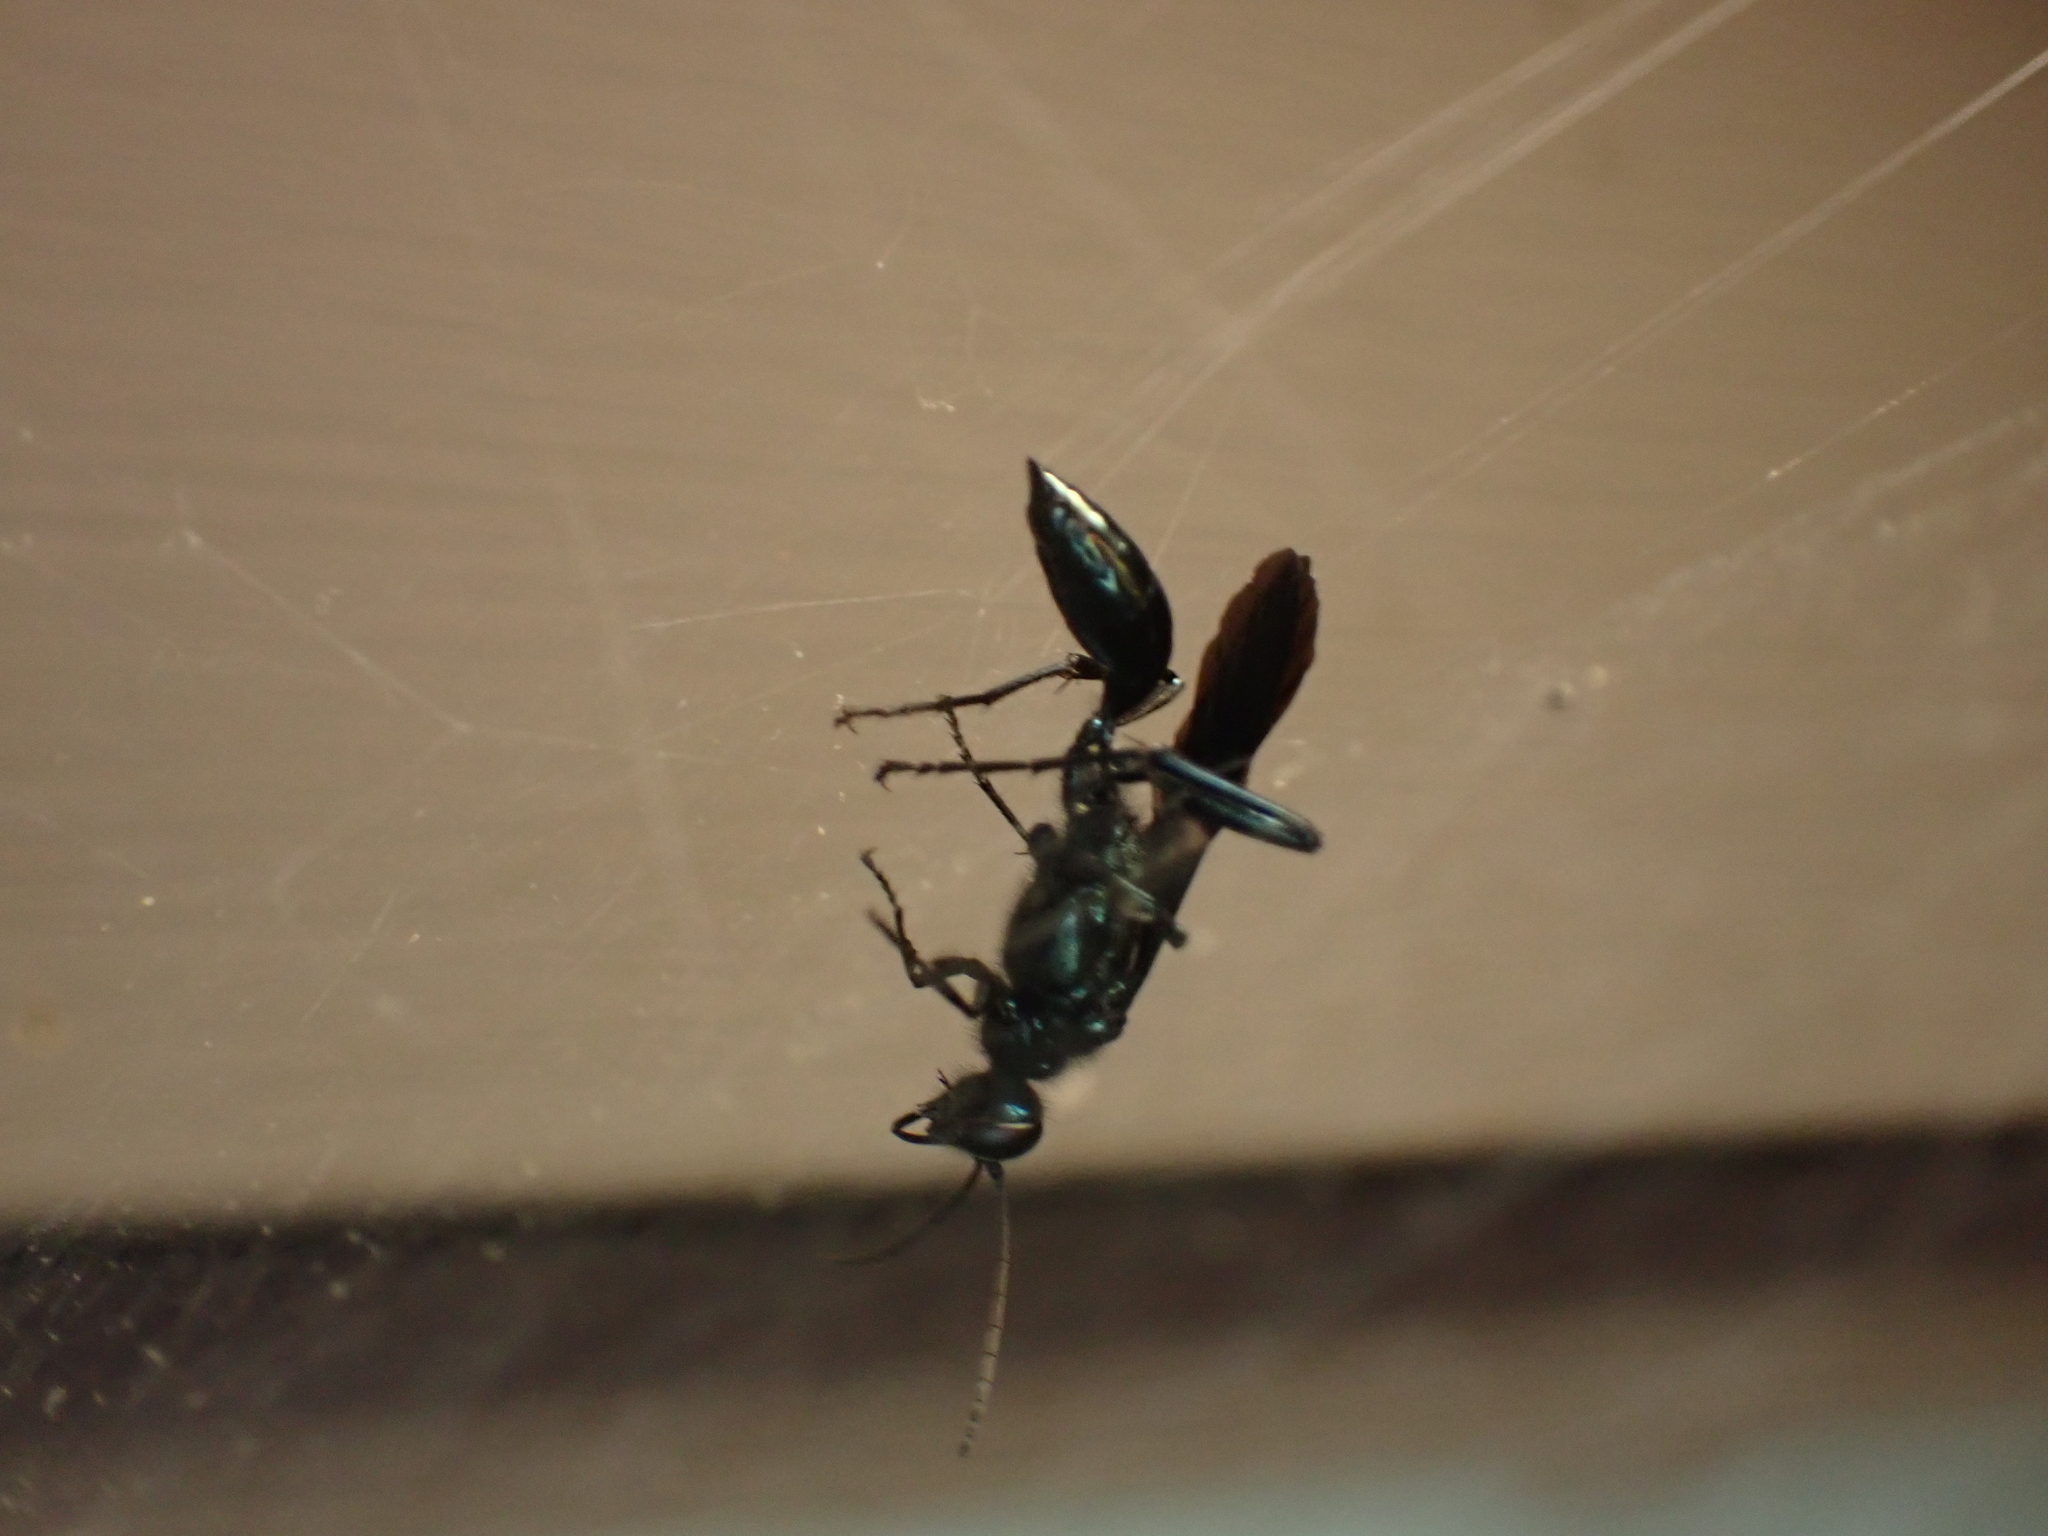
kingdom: Animalia
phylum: Arthropoda
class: Insecta
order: Hymenoptera
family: Sphecidae
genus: Chalybion
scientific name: Chalybion californicum
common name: Mud dauber
